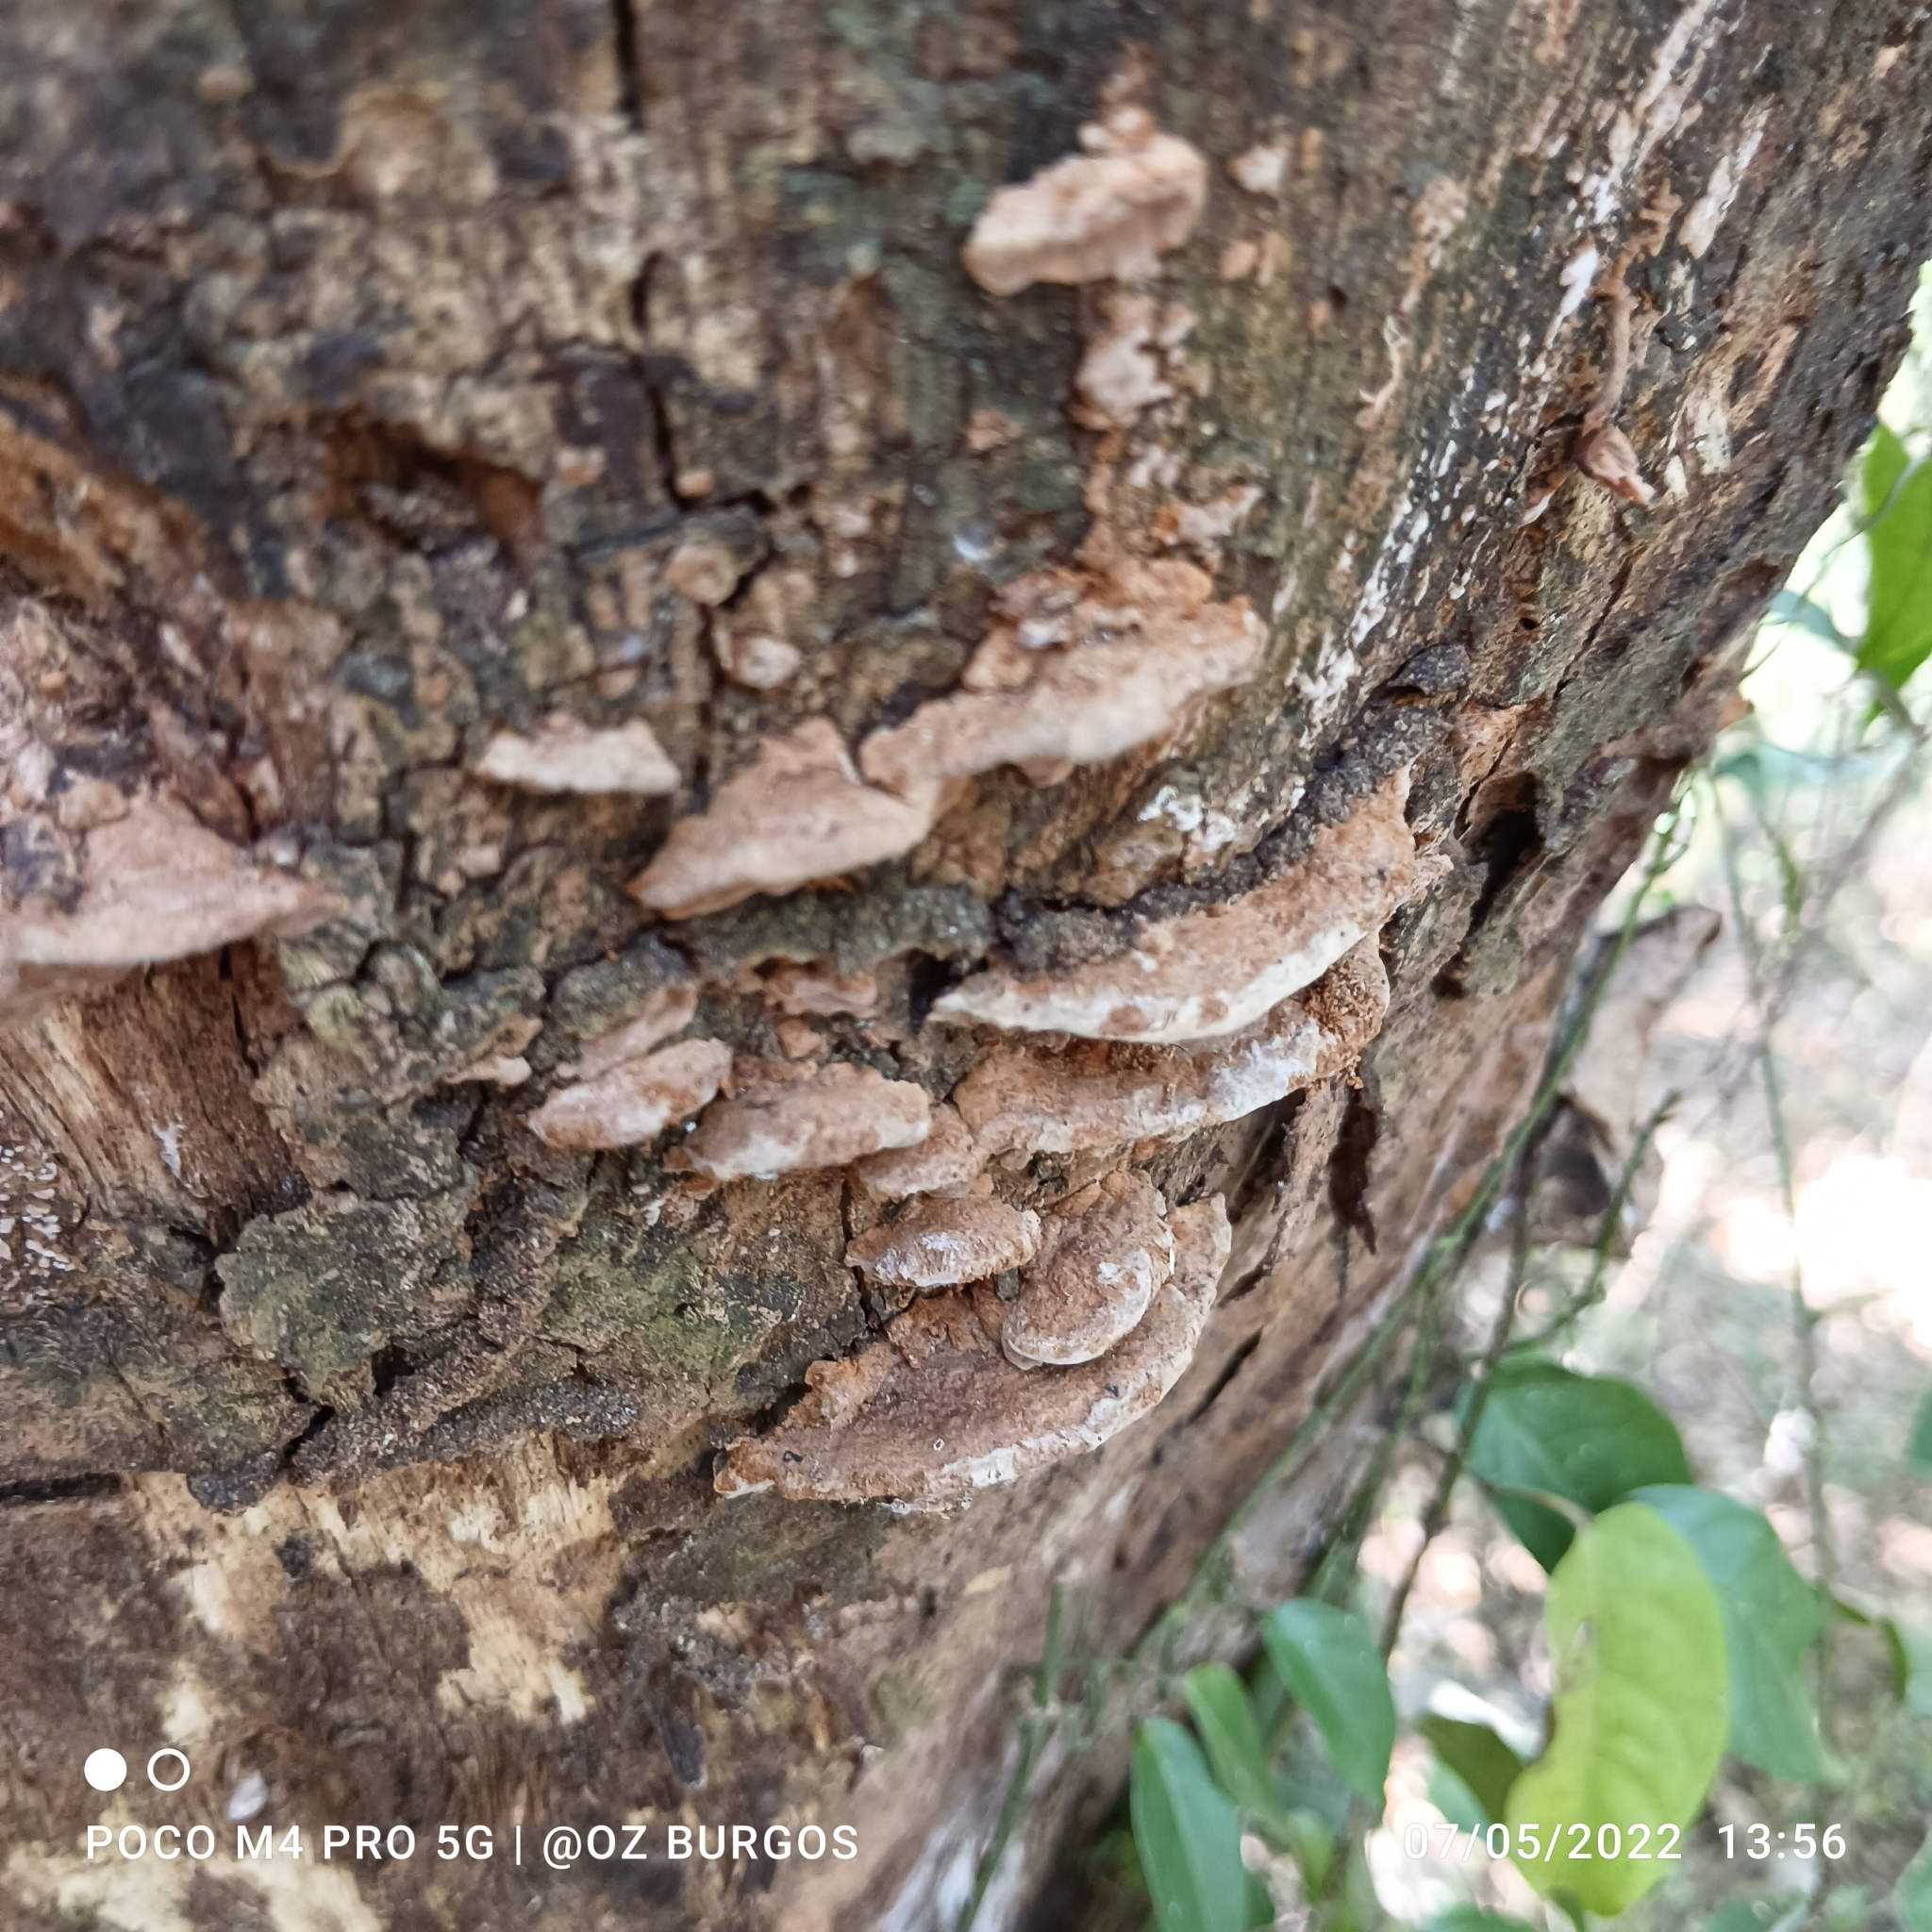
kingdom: Fungi
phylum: Basidiomycota
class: Agaricomycetes
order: Hymenochaetales
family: Hymenochaetaceae
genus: Phellinus
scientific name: Phellinus gilvus
